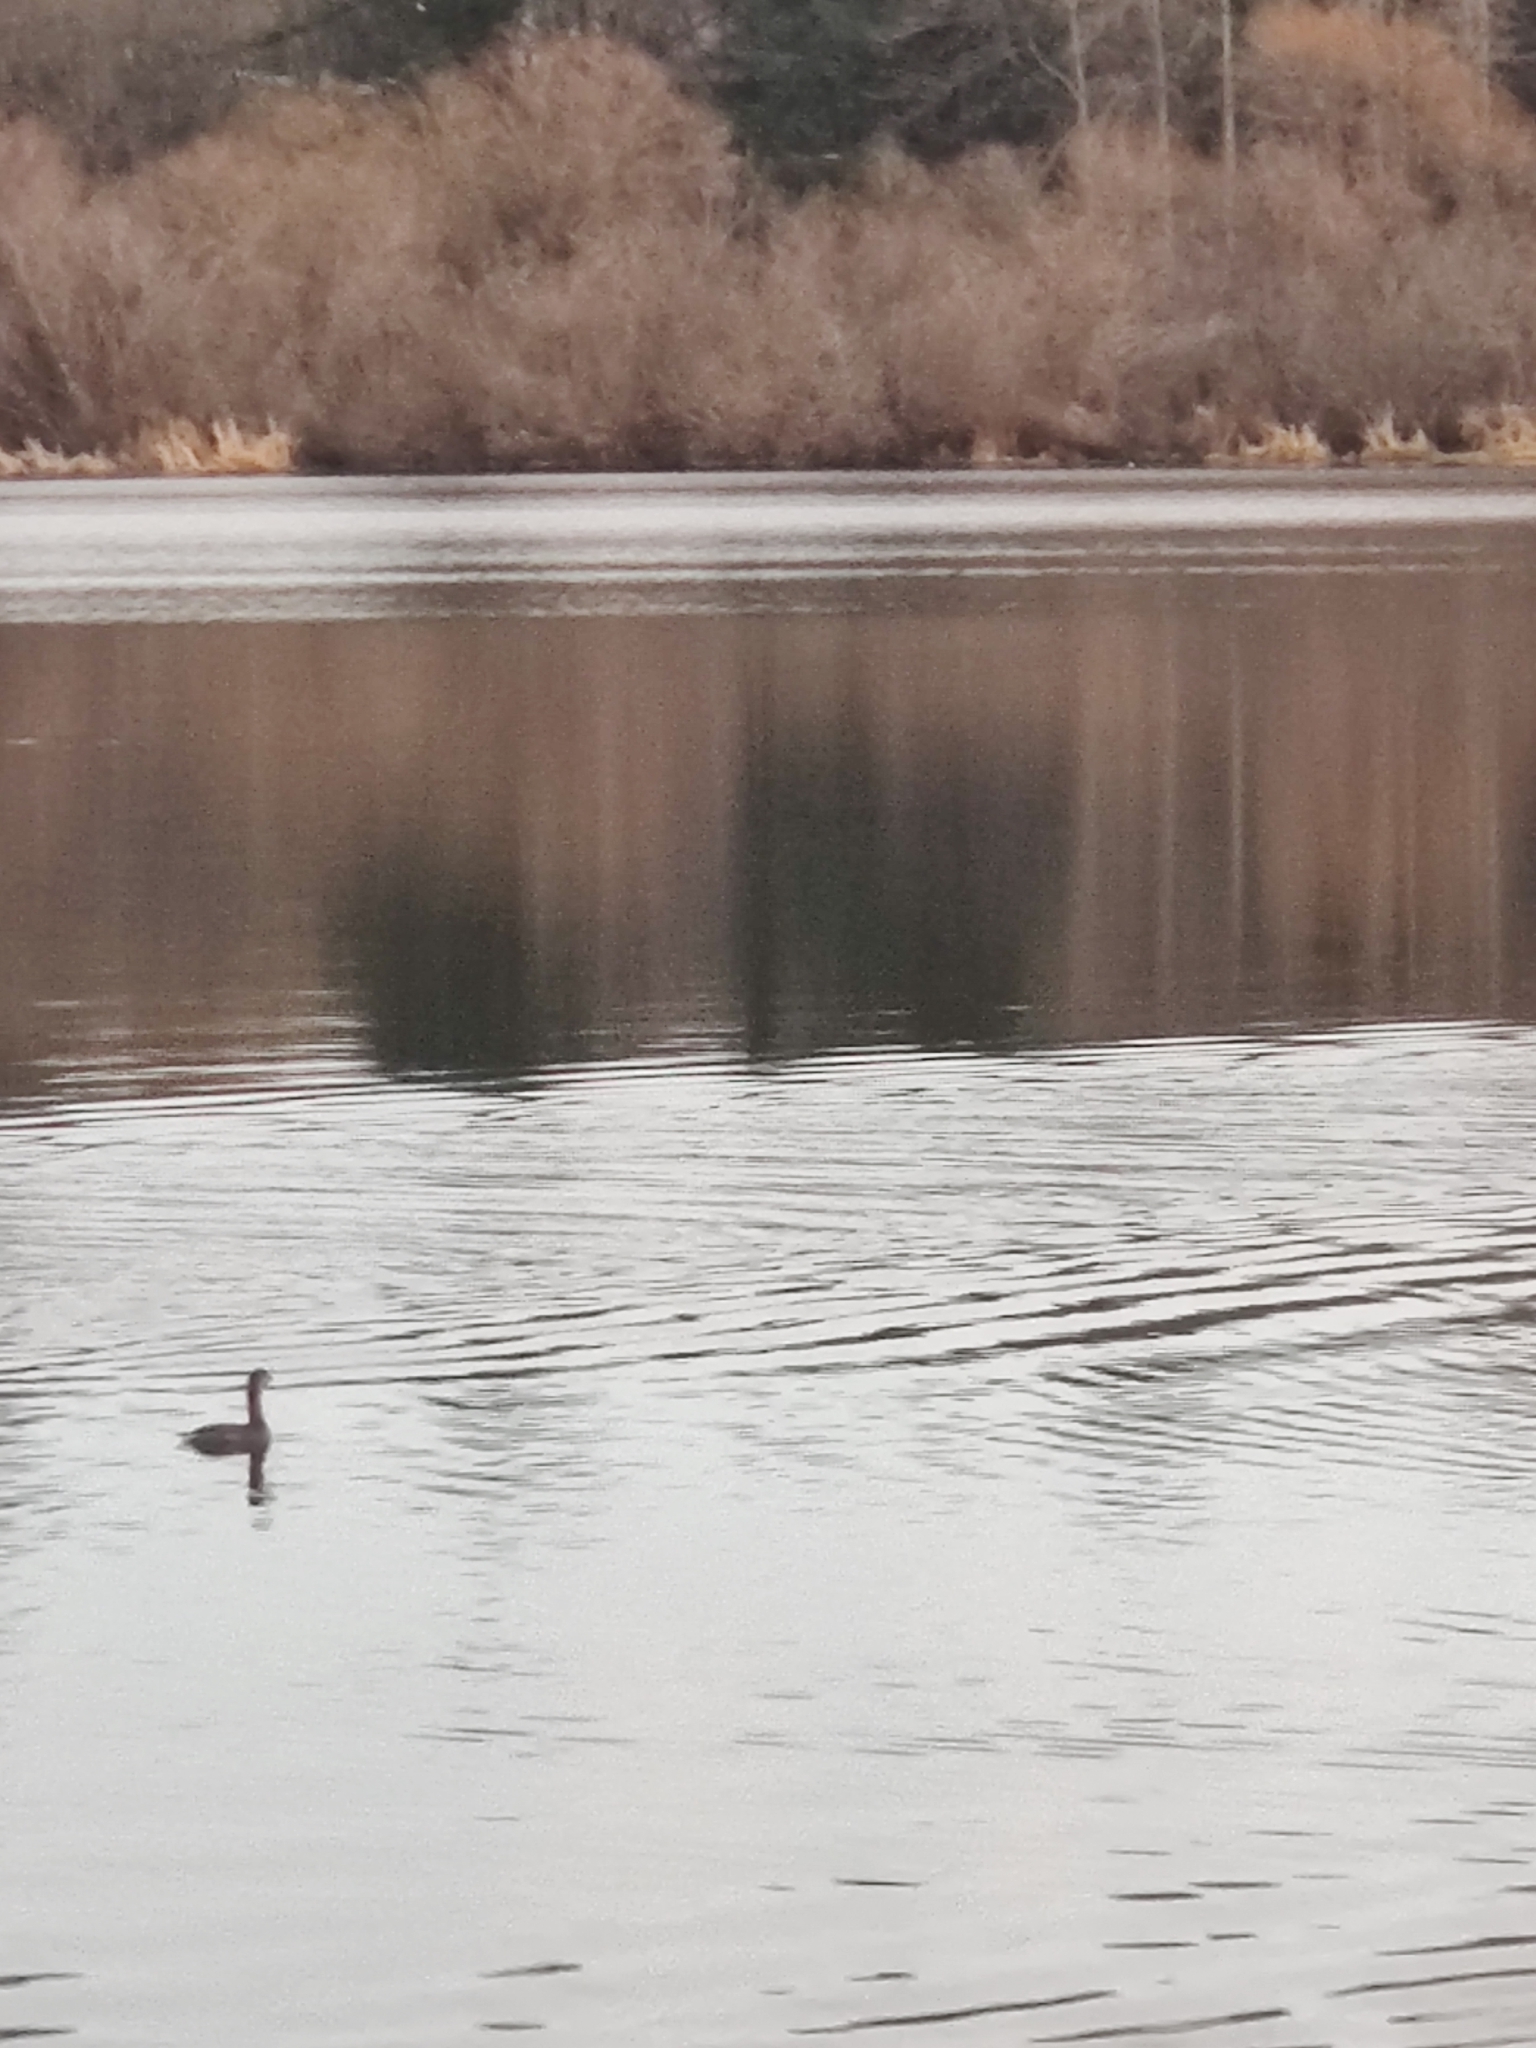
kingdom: Animalia
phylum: Chordata
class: Aves
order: Podicipediformes
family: Podicipedidae
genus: Podilymbus
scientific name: Podilymbus podiceps
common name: Pied-billed grebe
